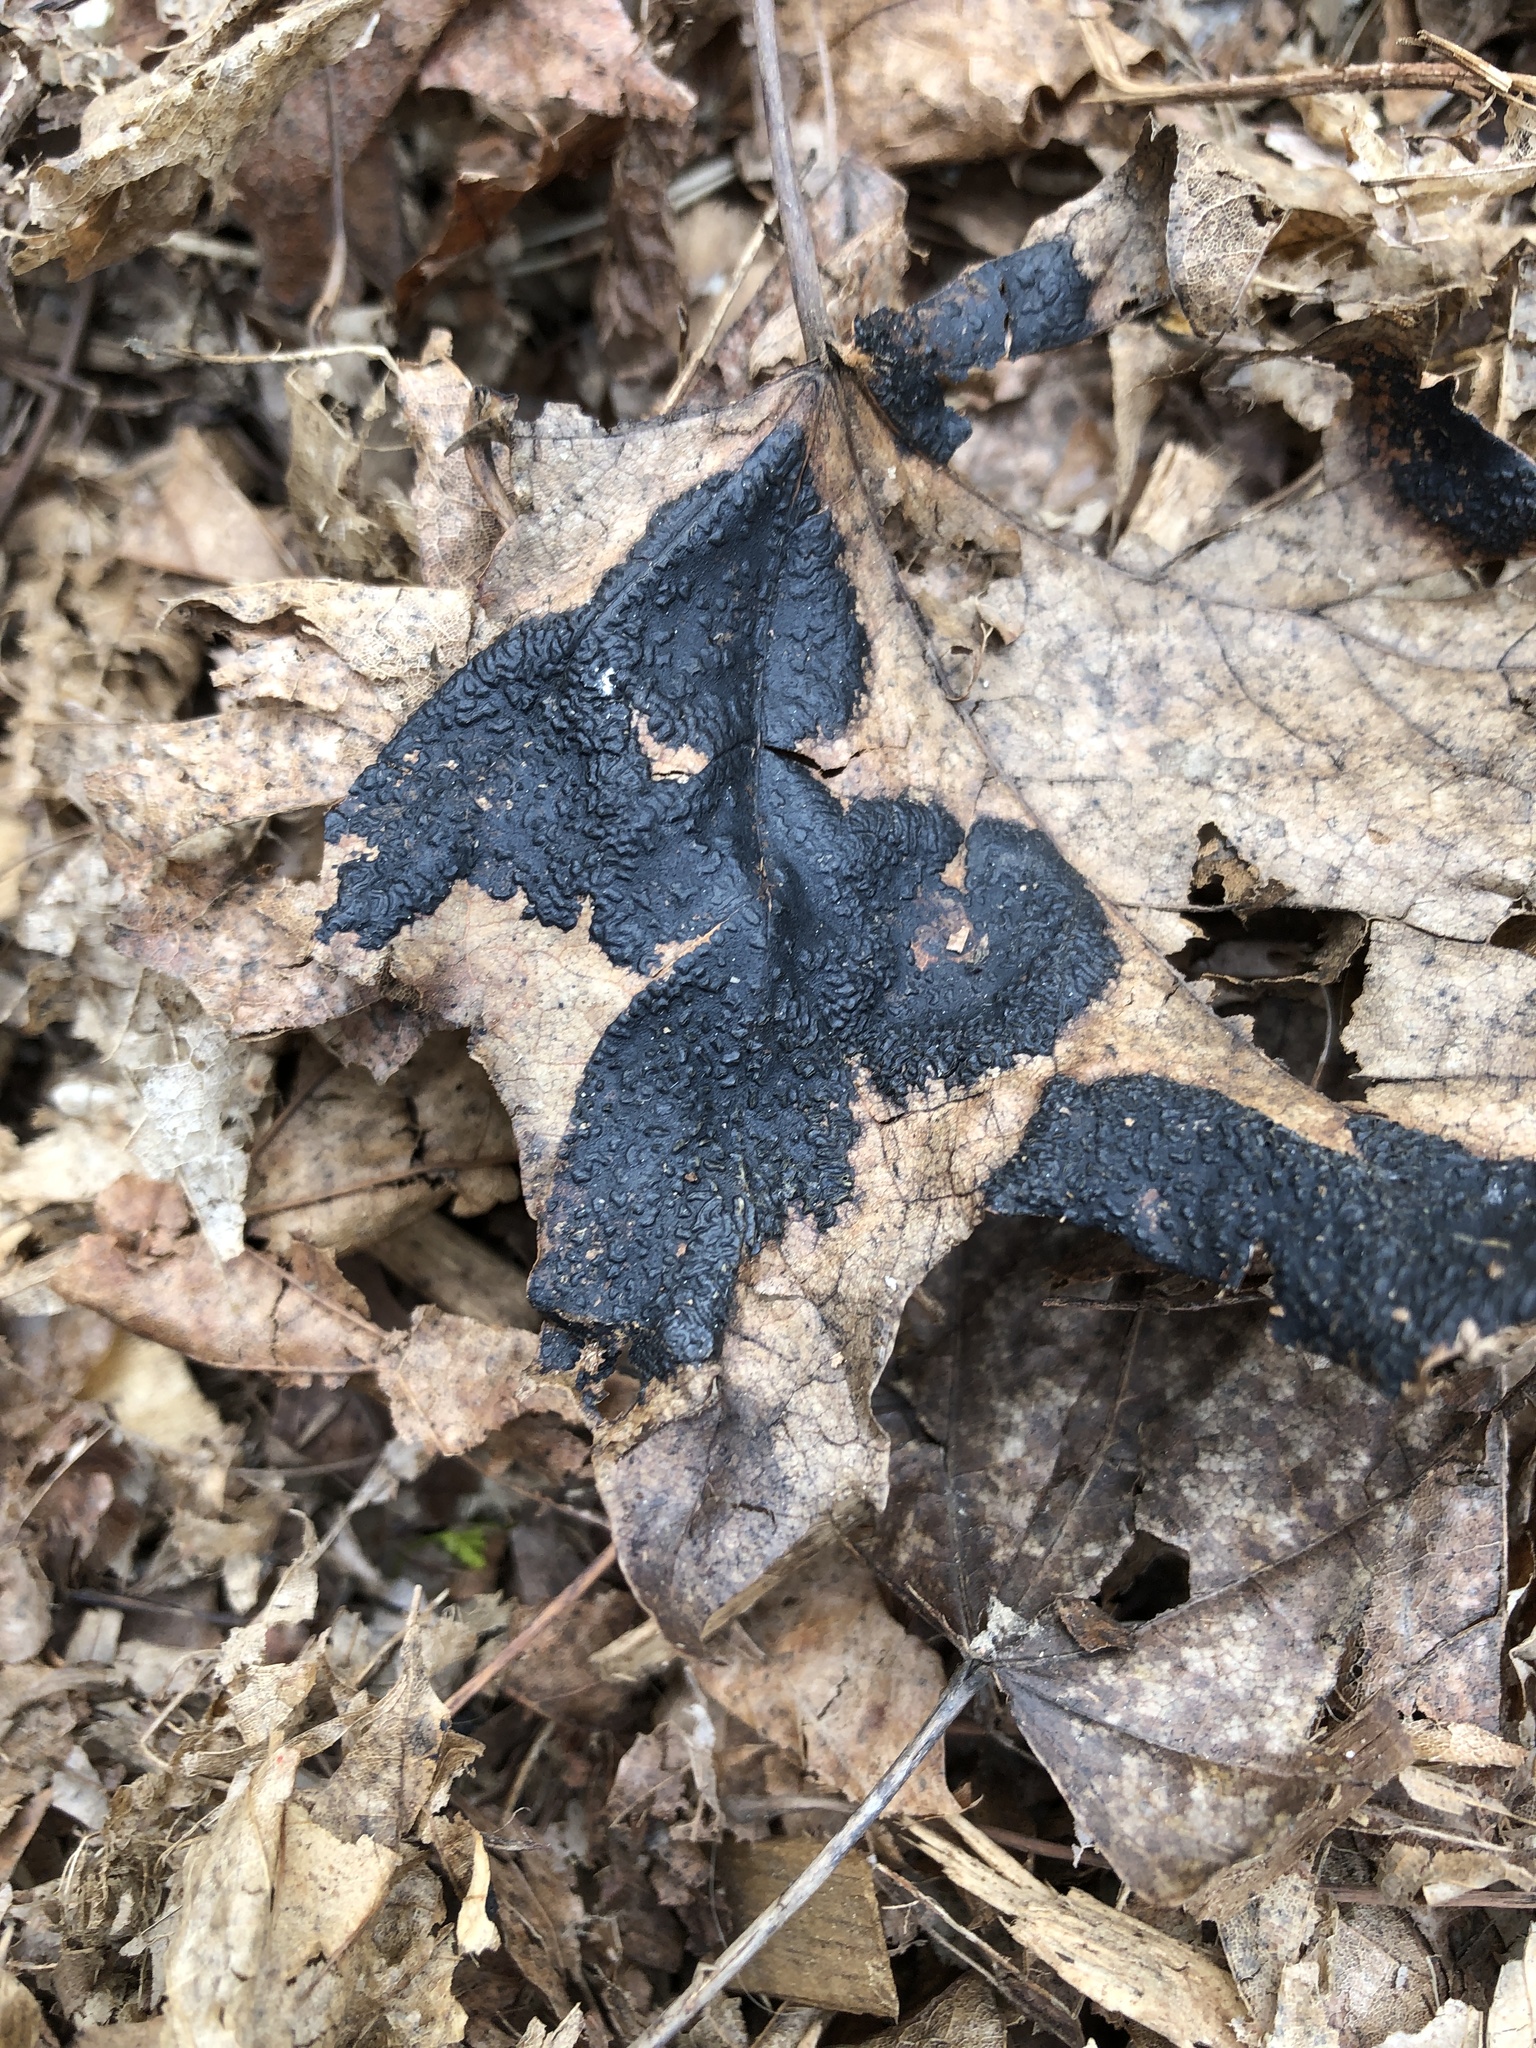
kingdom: Fungi
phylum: Ascomycota
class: Leotiomycetes
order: Rhytismatales
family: Rhytismataceae
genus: Rhytisma
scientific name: Rhytisma acerinum
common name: European tar spot
